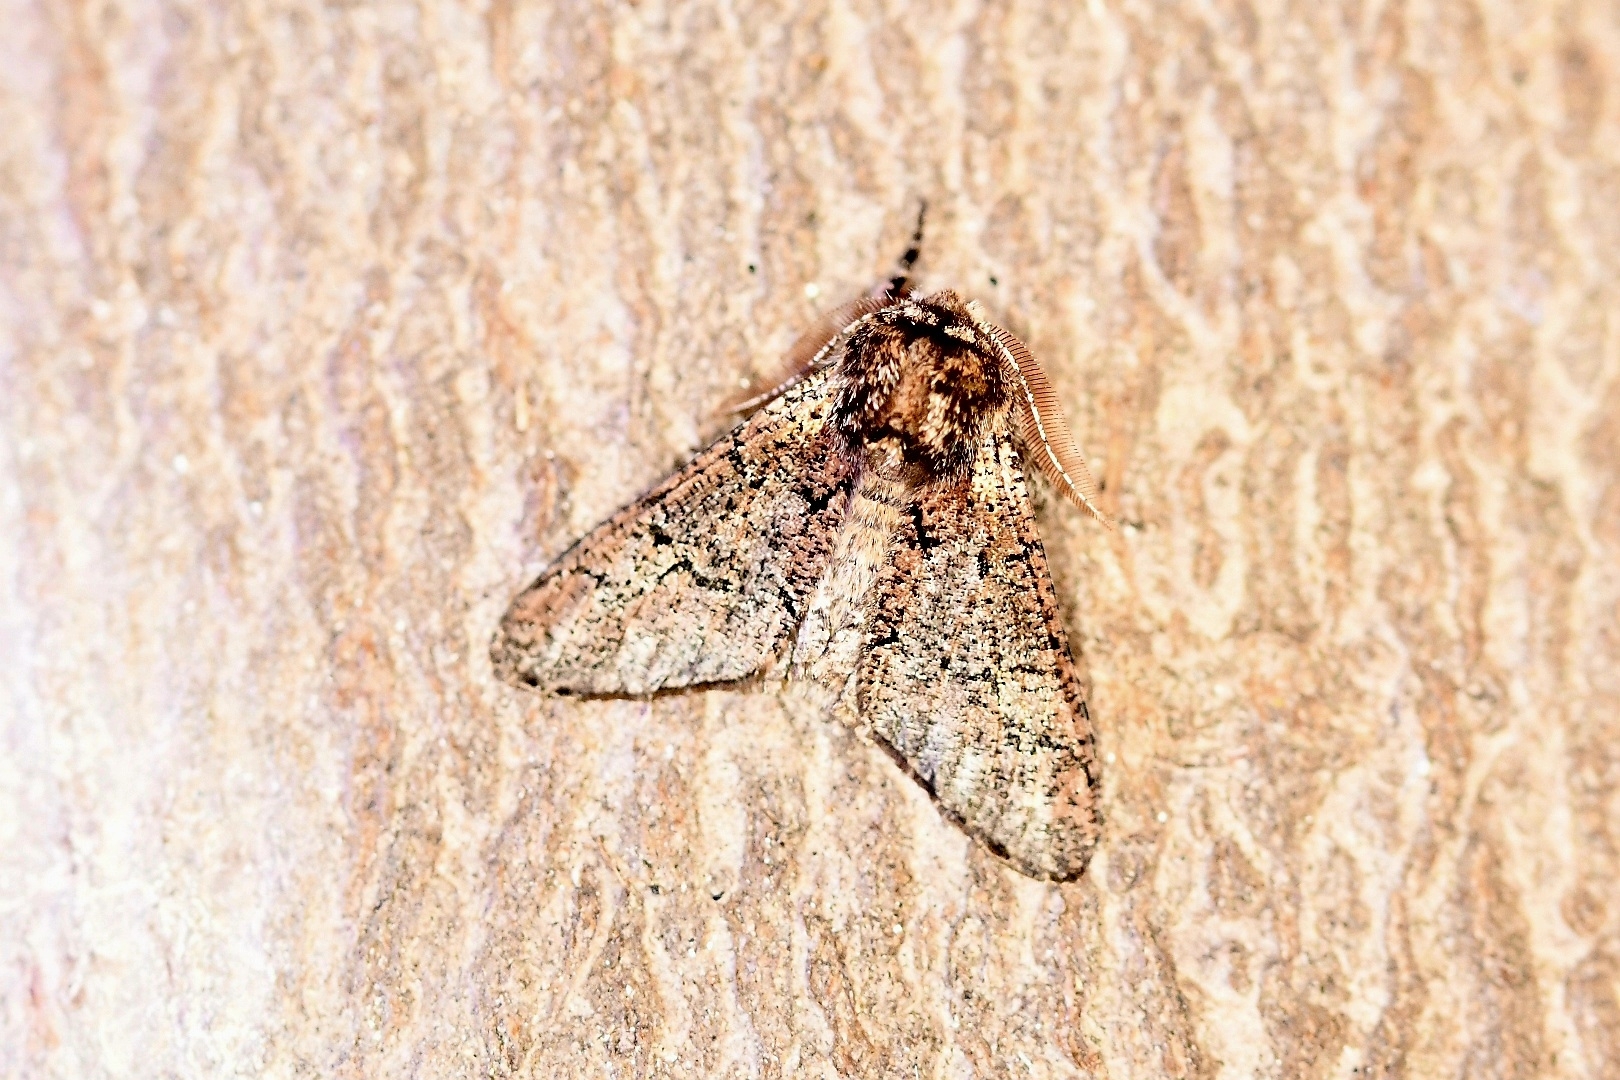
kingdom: Animalia
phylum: Arthropoda
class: Insecta
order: Lepidoptera
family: Geometridae
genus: Biston
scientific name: Biston strataria
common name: Oak beauty
